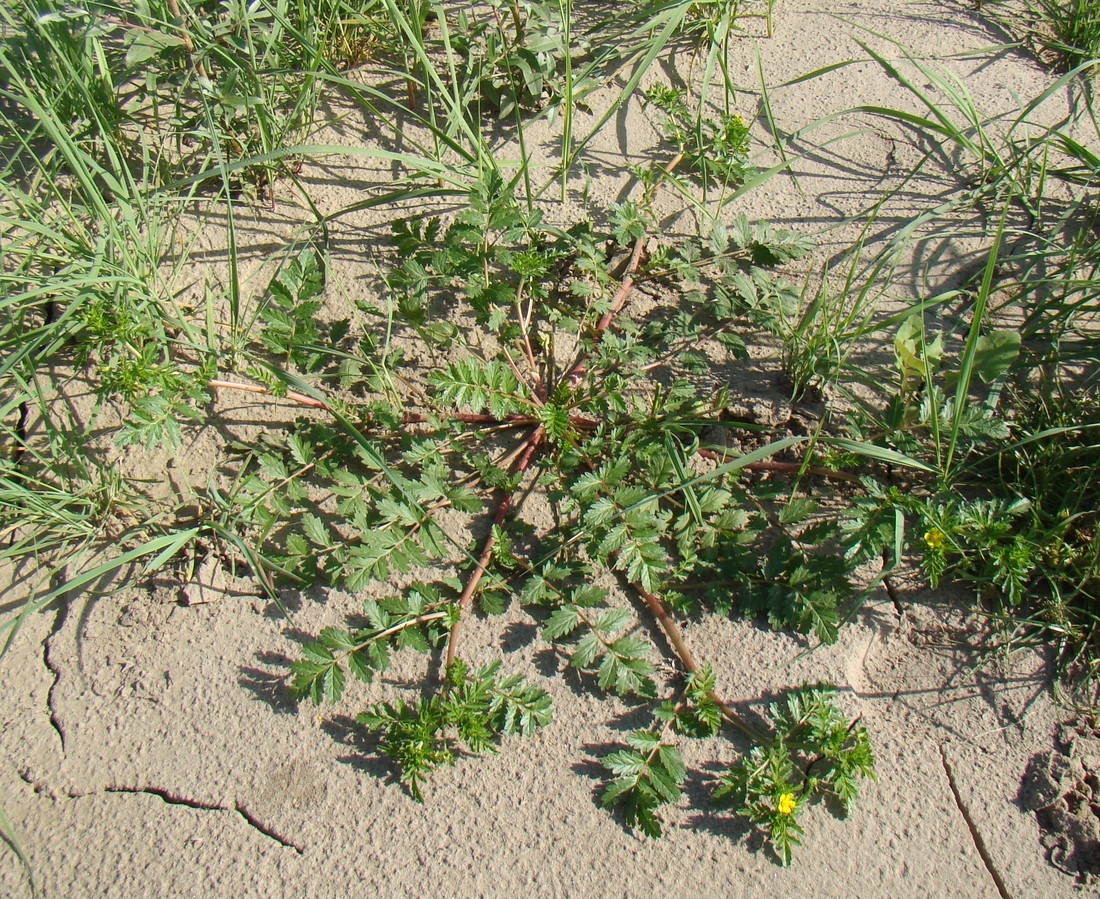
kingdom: Plantae
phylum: Tracheophyta
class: Magnoliopsida
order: Rosales
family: Rosaceae
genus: Potentilla
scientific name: Potentilla supina
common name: Prostrate cinquefoil
